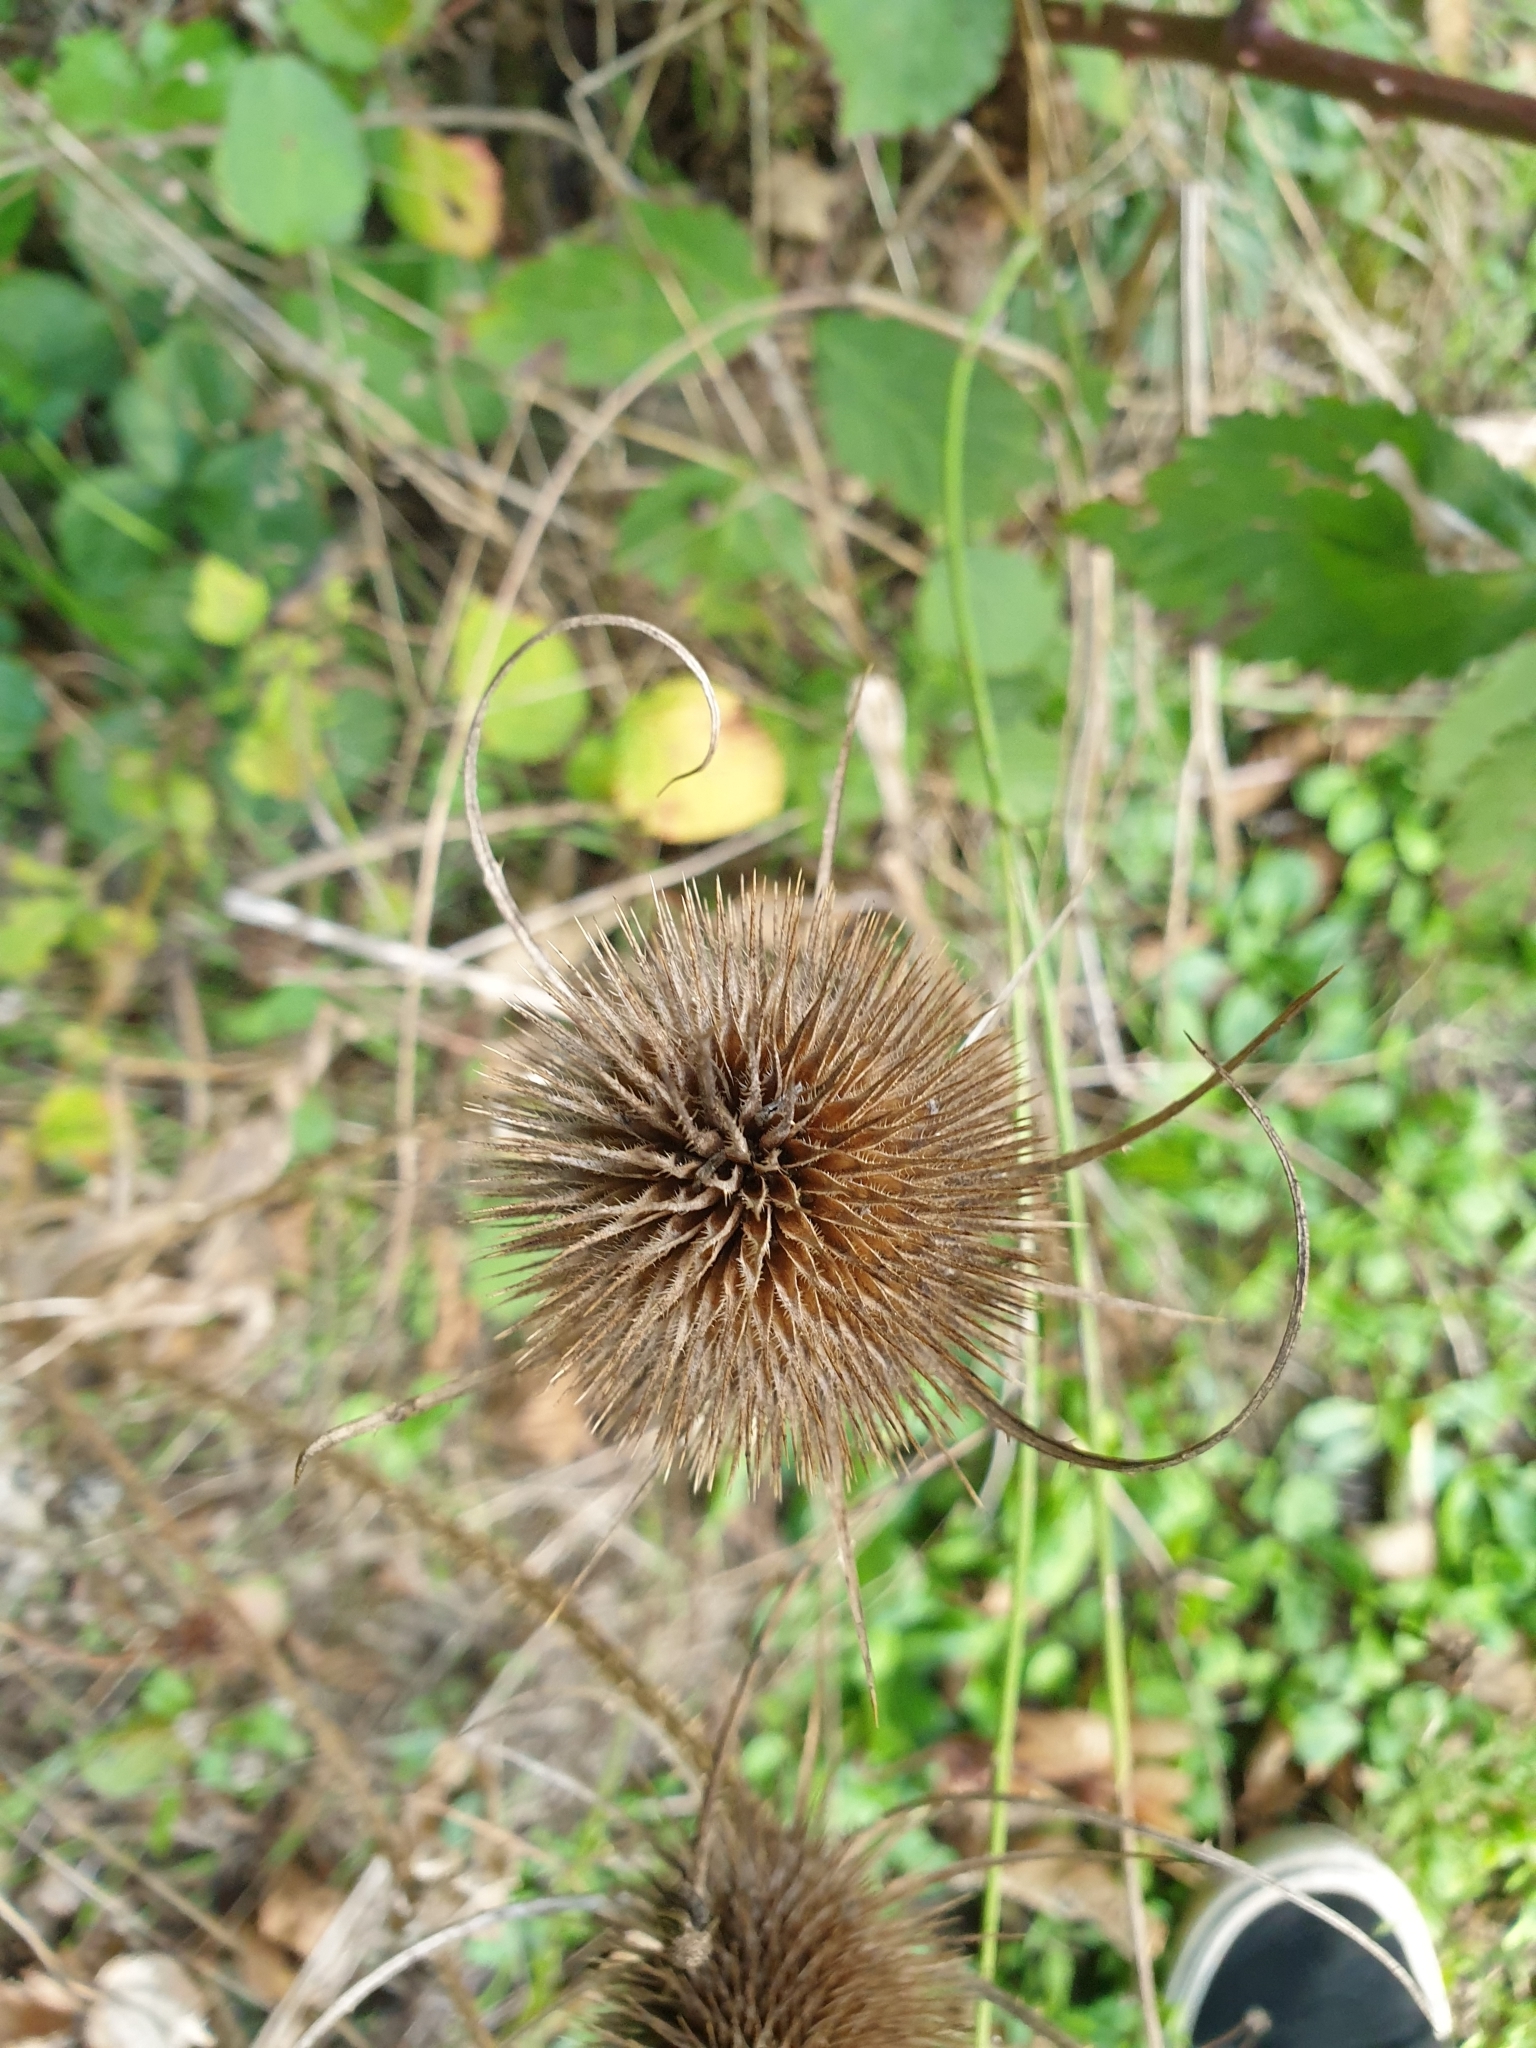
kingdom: Plantae
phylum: Tracheophyta
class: Magnoliopsida
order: Dipsacales
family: Caprifoliaceae
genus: Dipsacus
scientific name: Dipsacus fullonum
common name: Teasel
